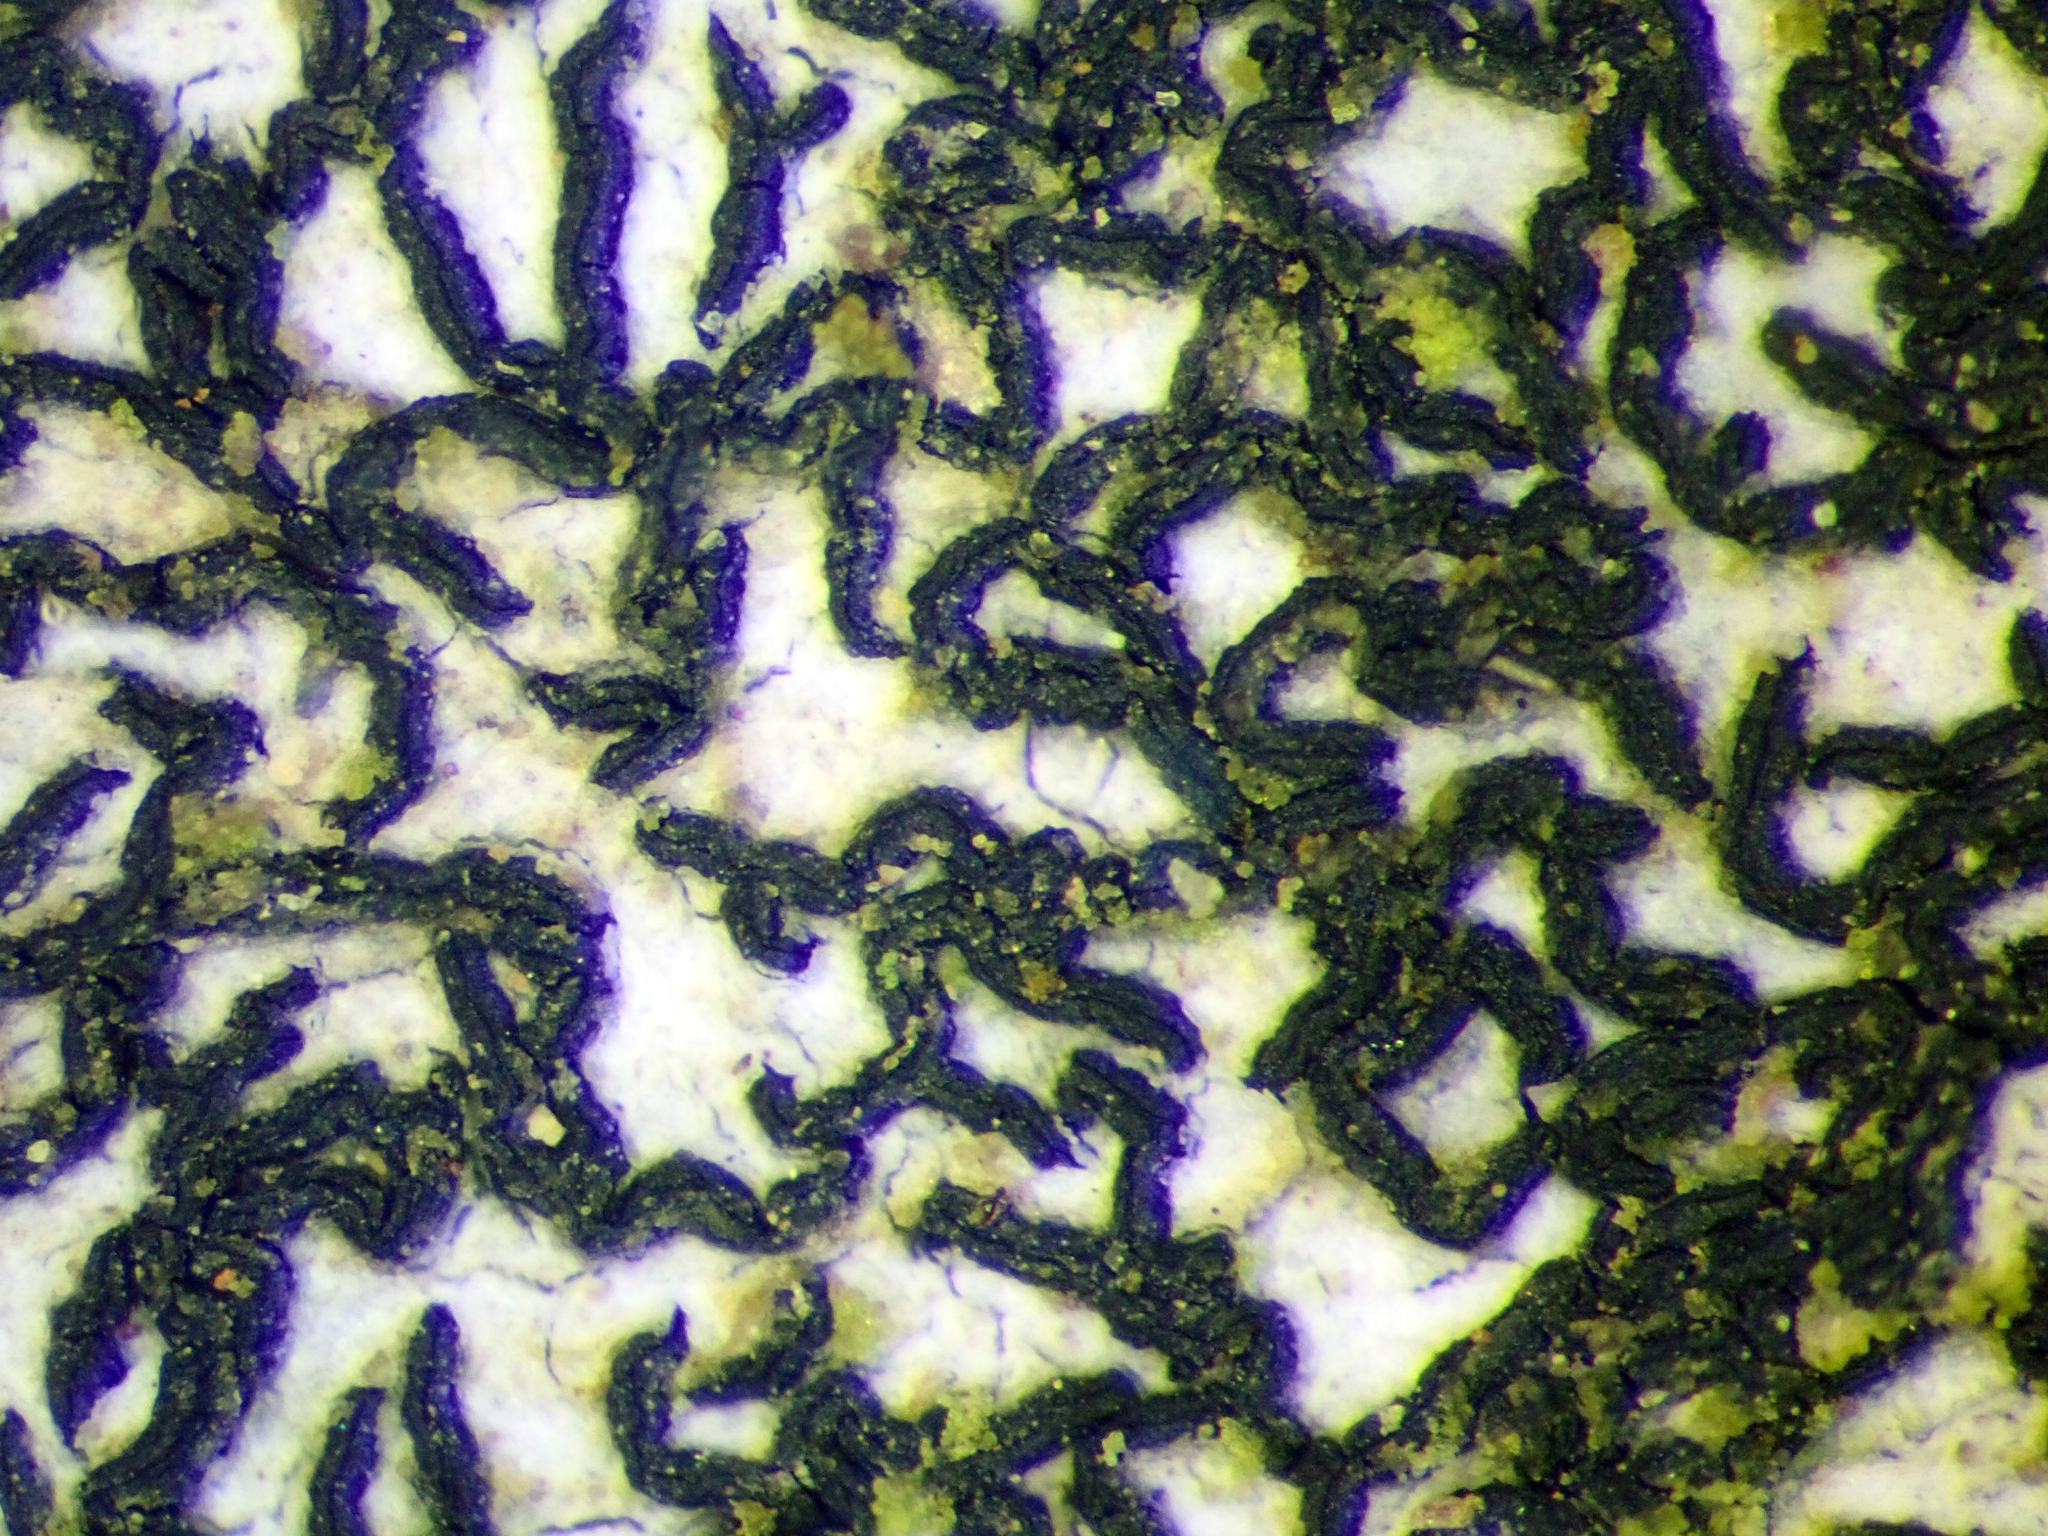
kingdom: Fungi
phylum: Ascomycota
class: Arthoniomycetes
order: Arthoniales
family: Arthoniaceae
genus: Arthonia
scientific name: Arthonia atra
